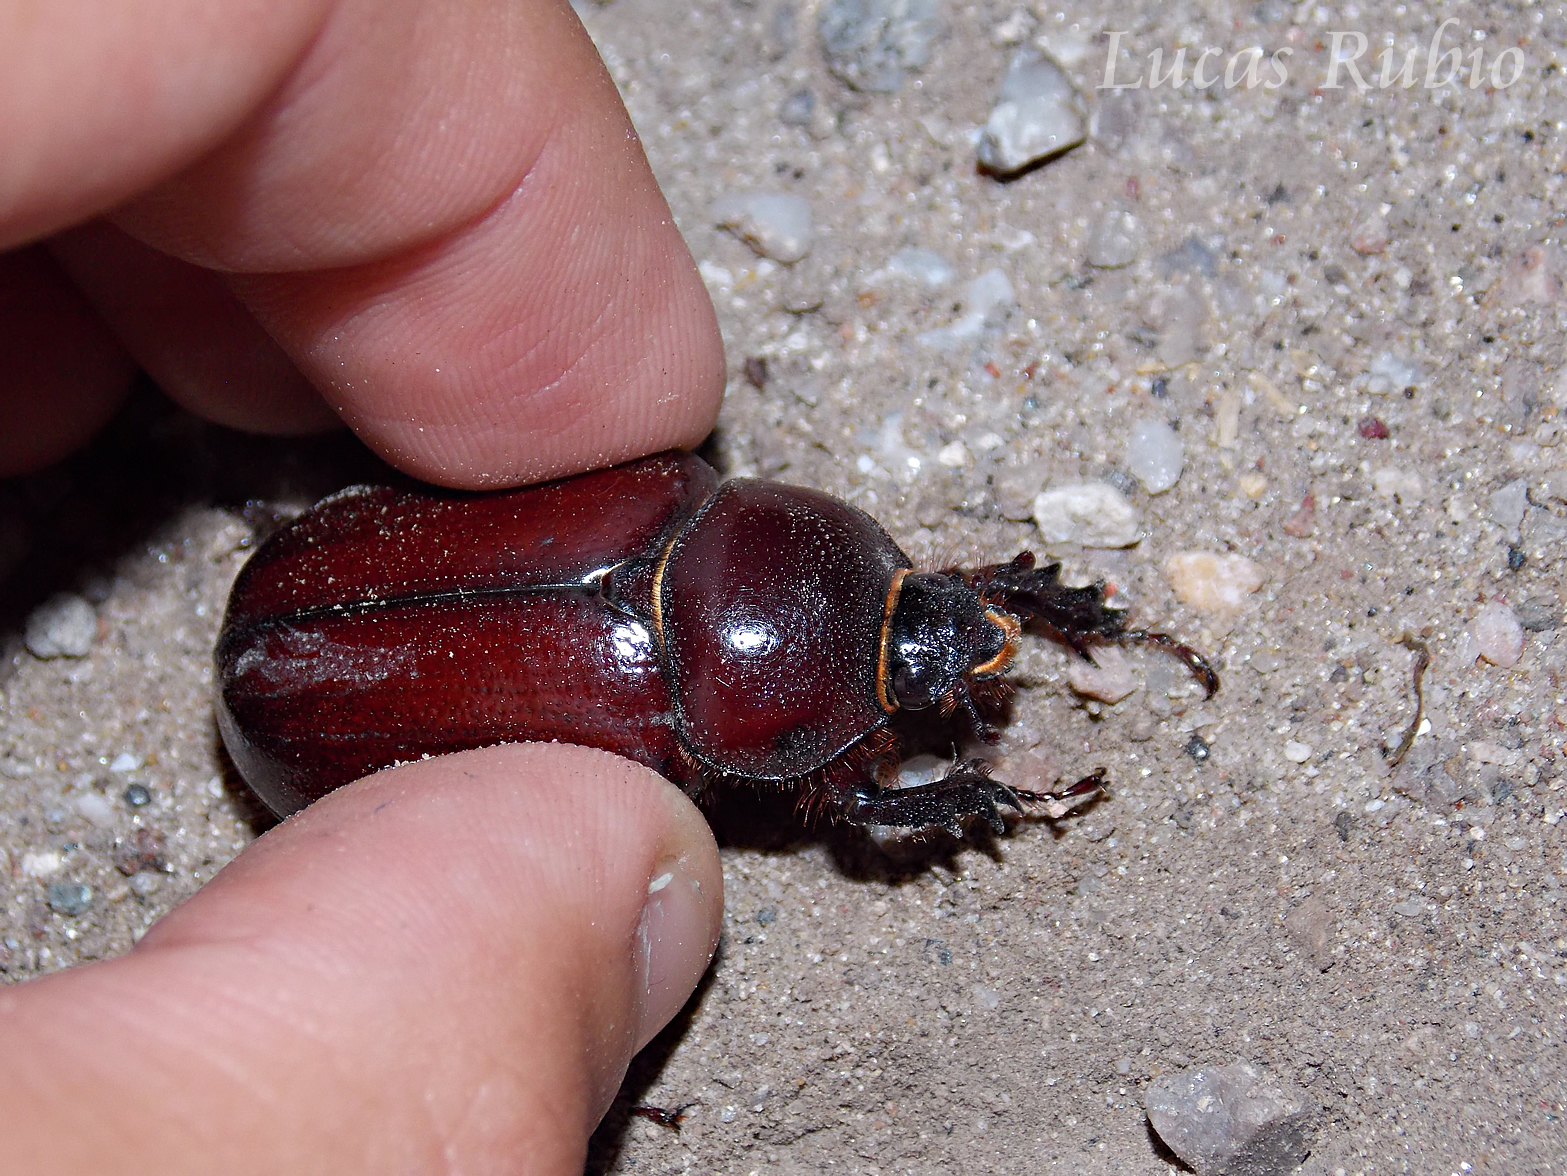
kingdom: Animalia
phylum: Arthropoda
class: Insecta
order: Coleoptera
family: Scarabaeidae
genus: Heterogomphus
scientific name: Heterogomphus inarmatus
